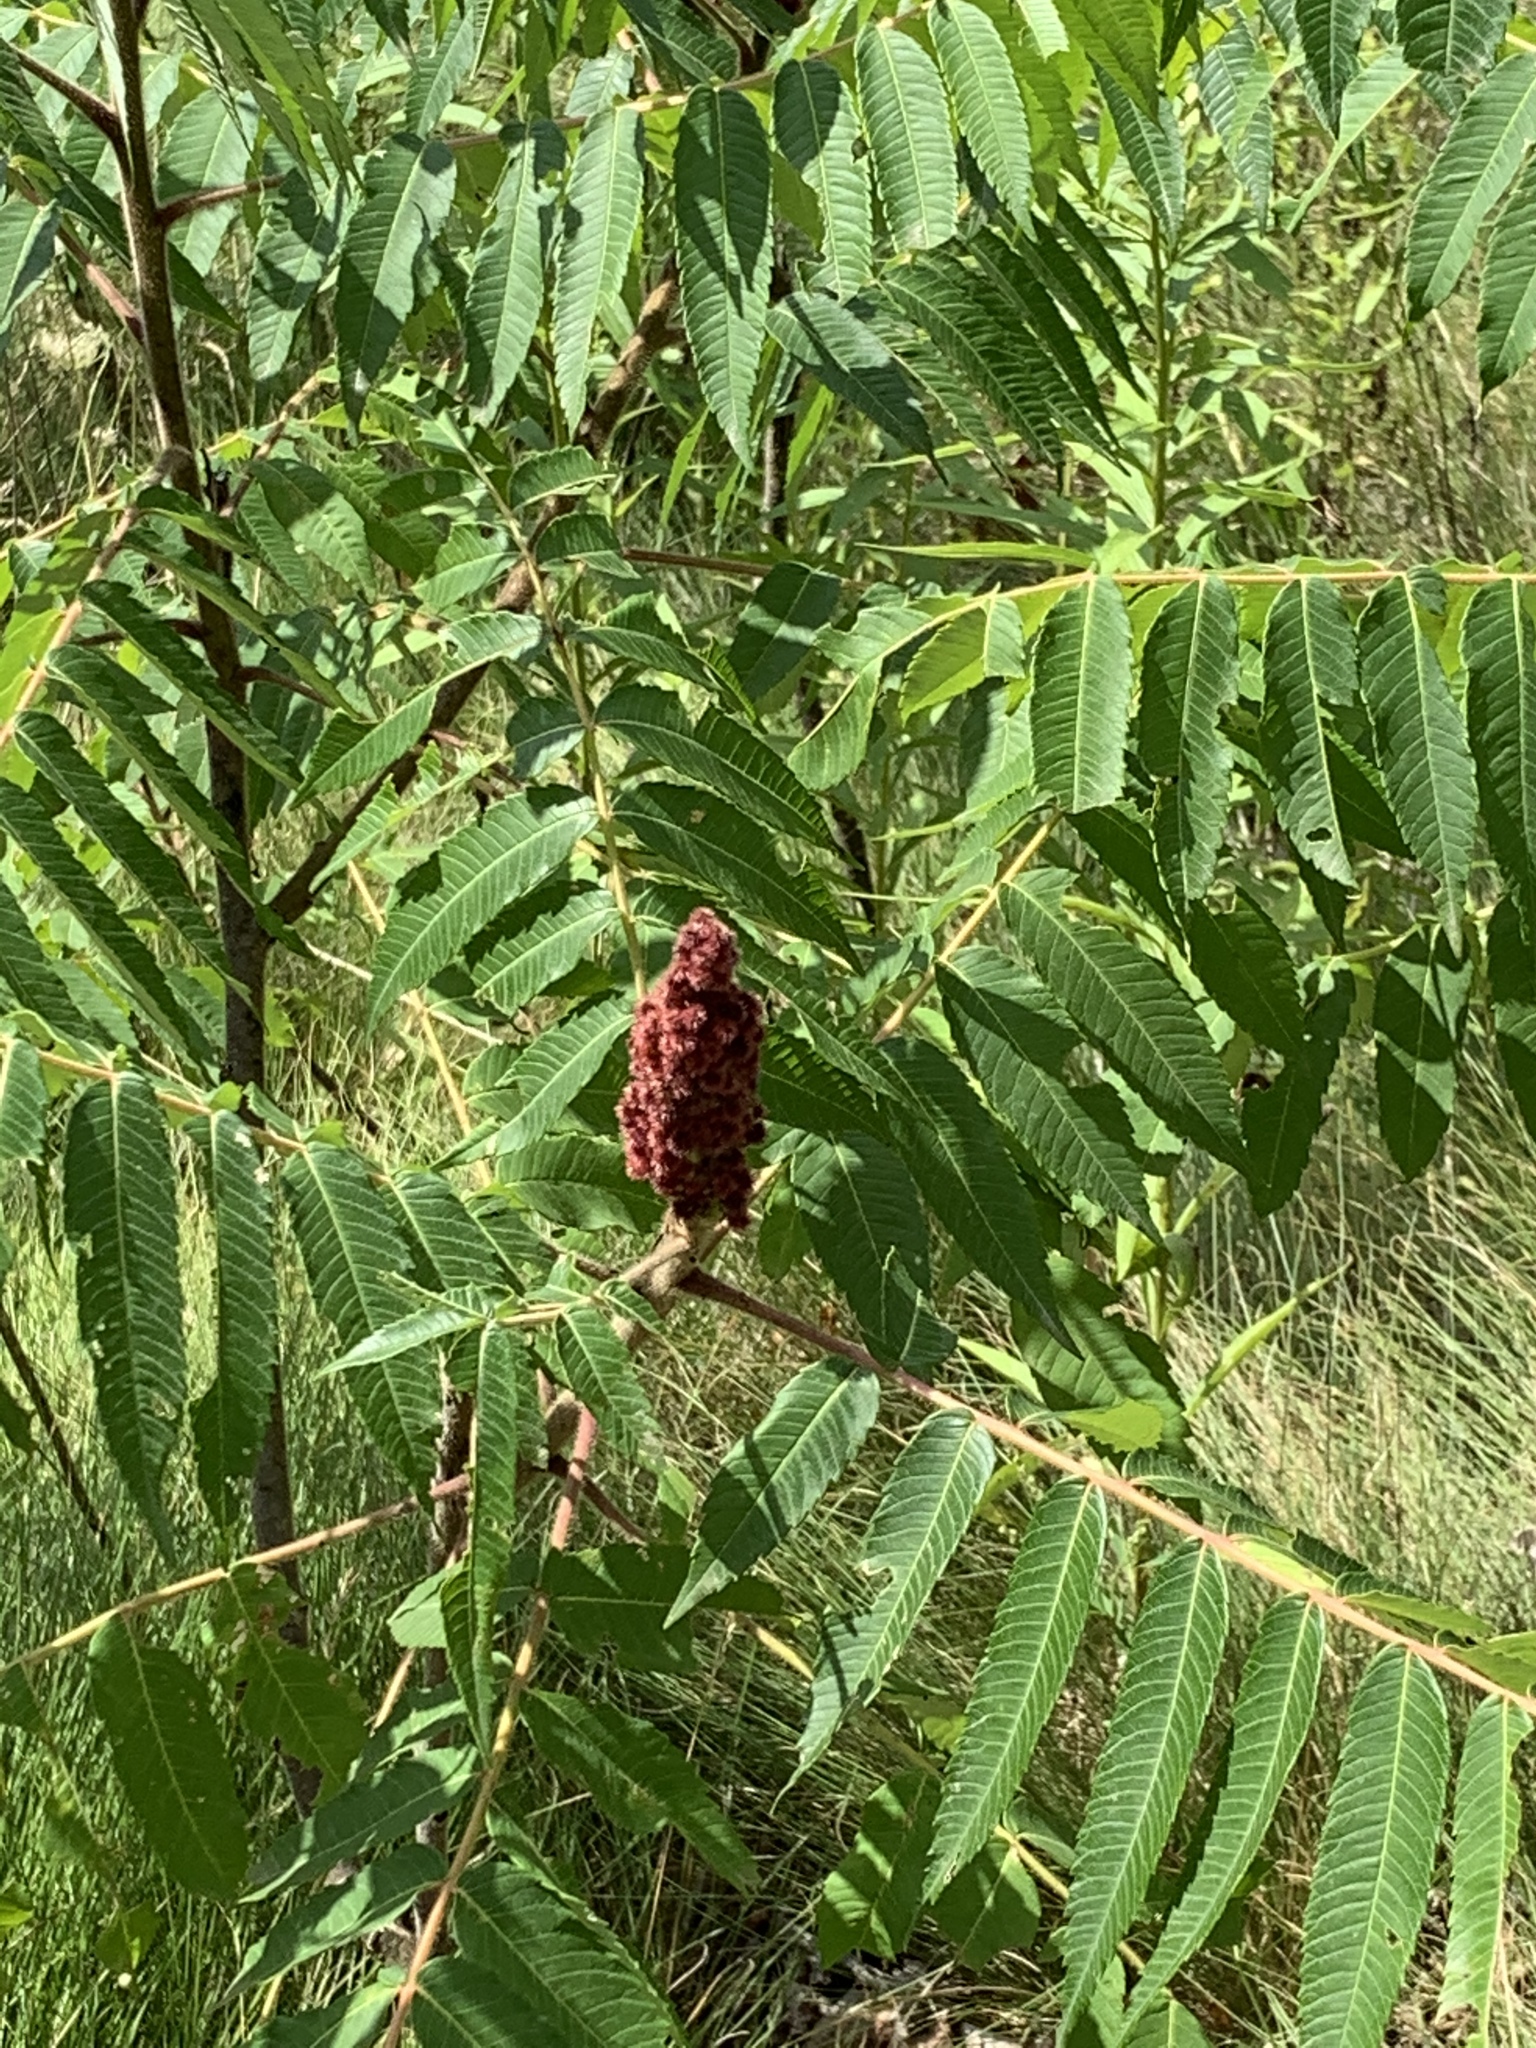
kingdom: Plantae
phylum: Tracheophyta
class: Magnoliopsida
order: Sapindales
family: Anacardiaceae
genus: Rhus
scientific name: Rhus typhina
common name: Staghorn sumac
